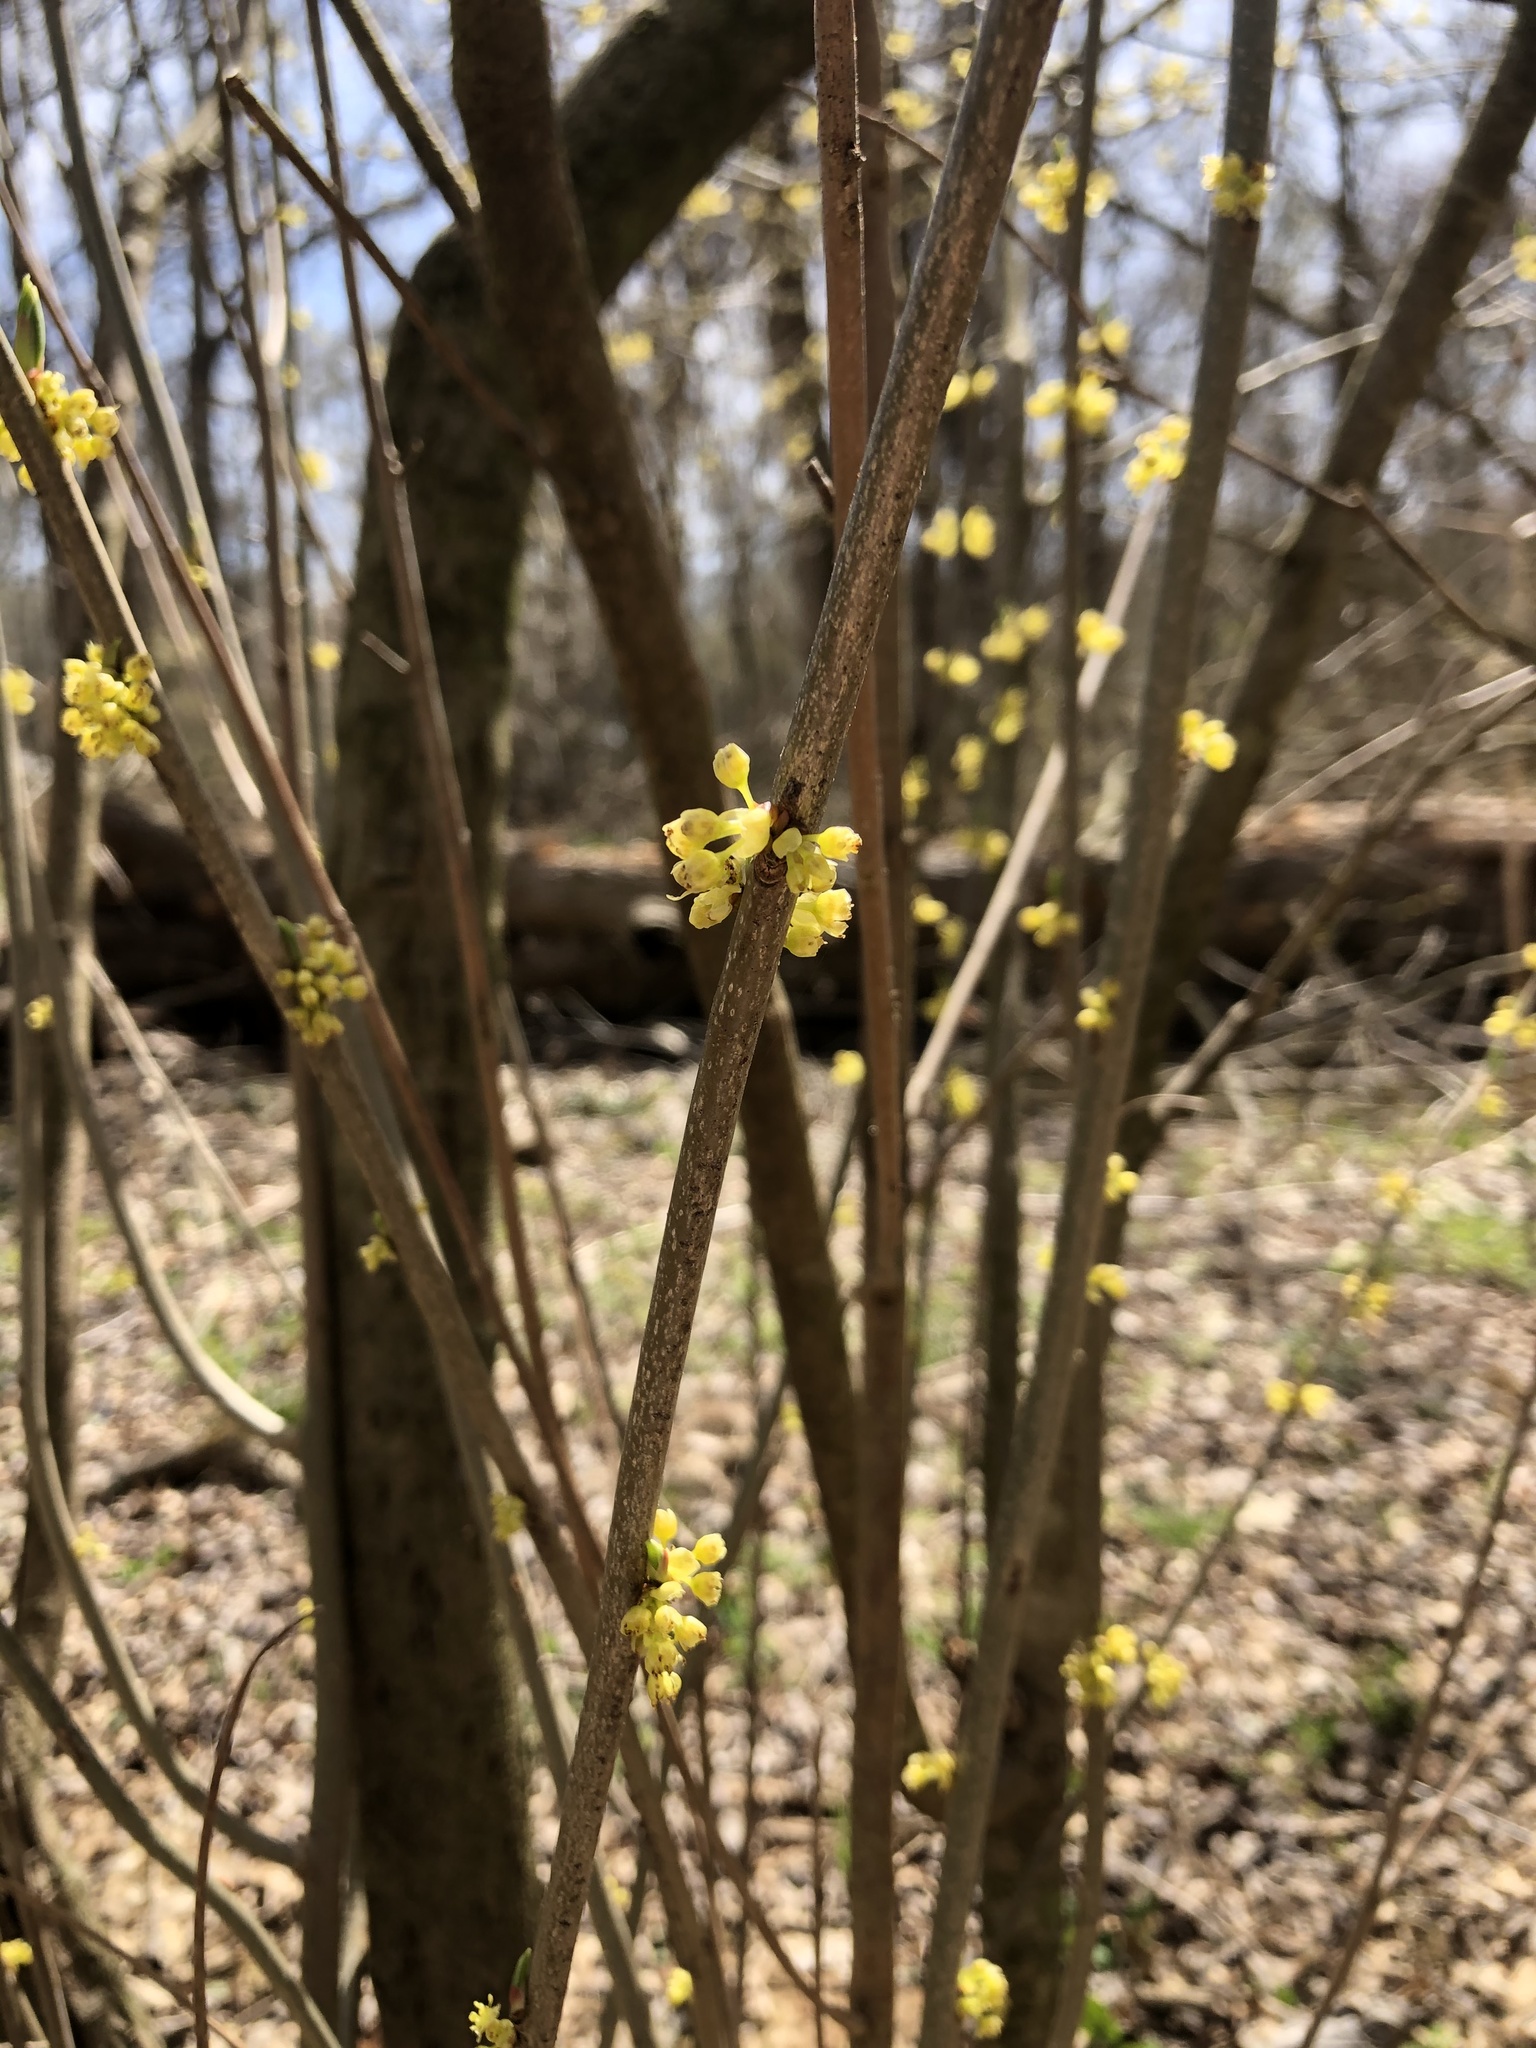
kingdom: Plantae
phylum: Tracheophyta
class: Magnoliopsida
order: Laurales
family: Lauraceae
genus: Lindera
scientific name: Lindera benzoin
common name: Spicebush
